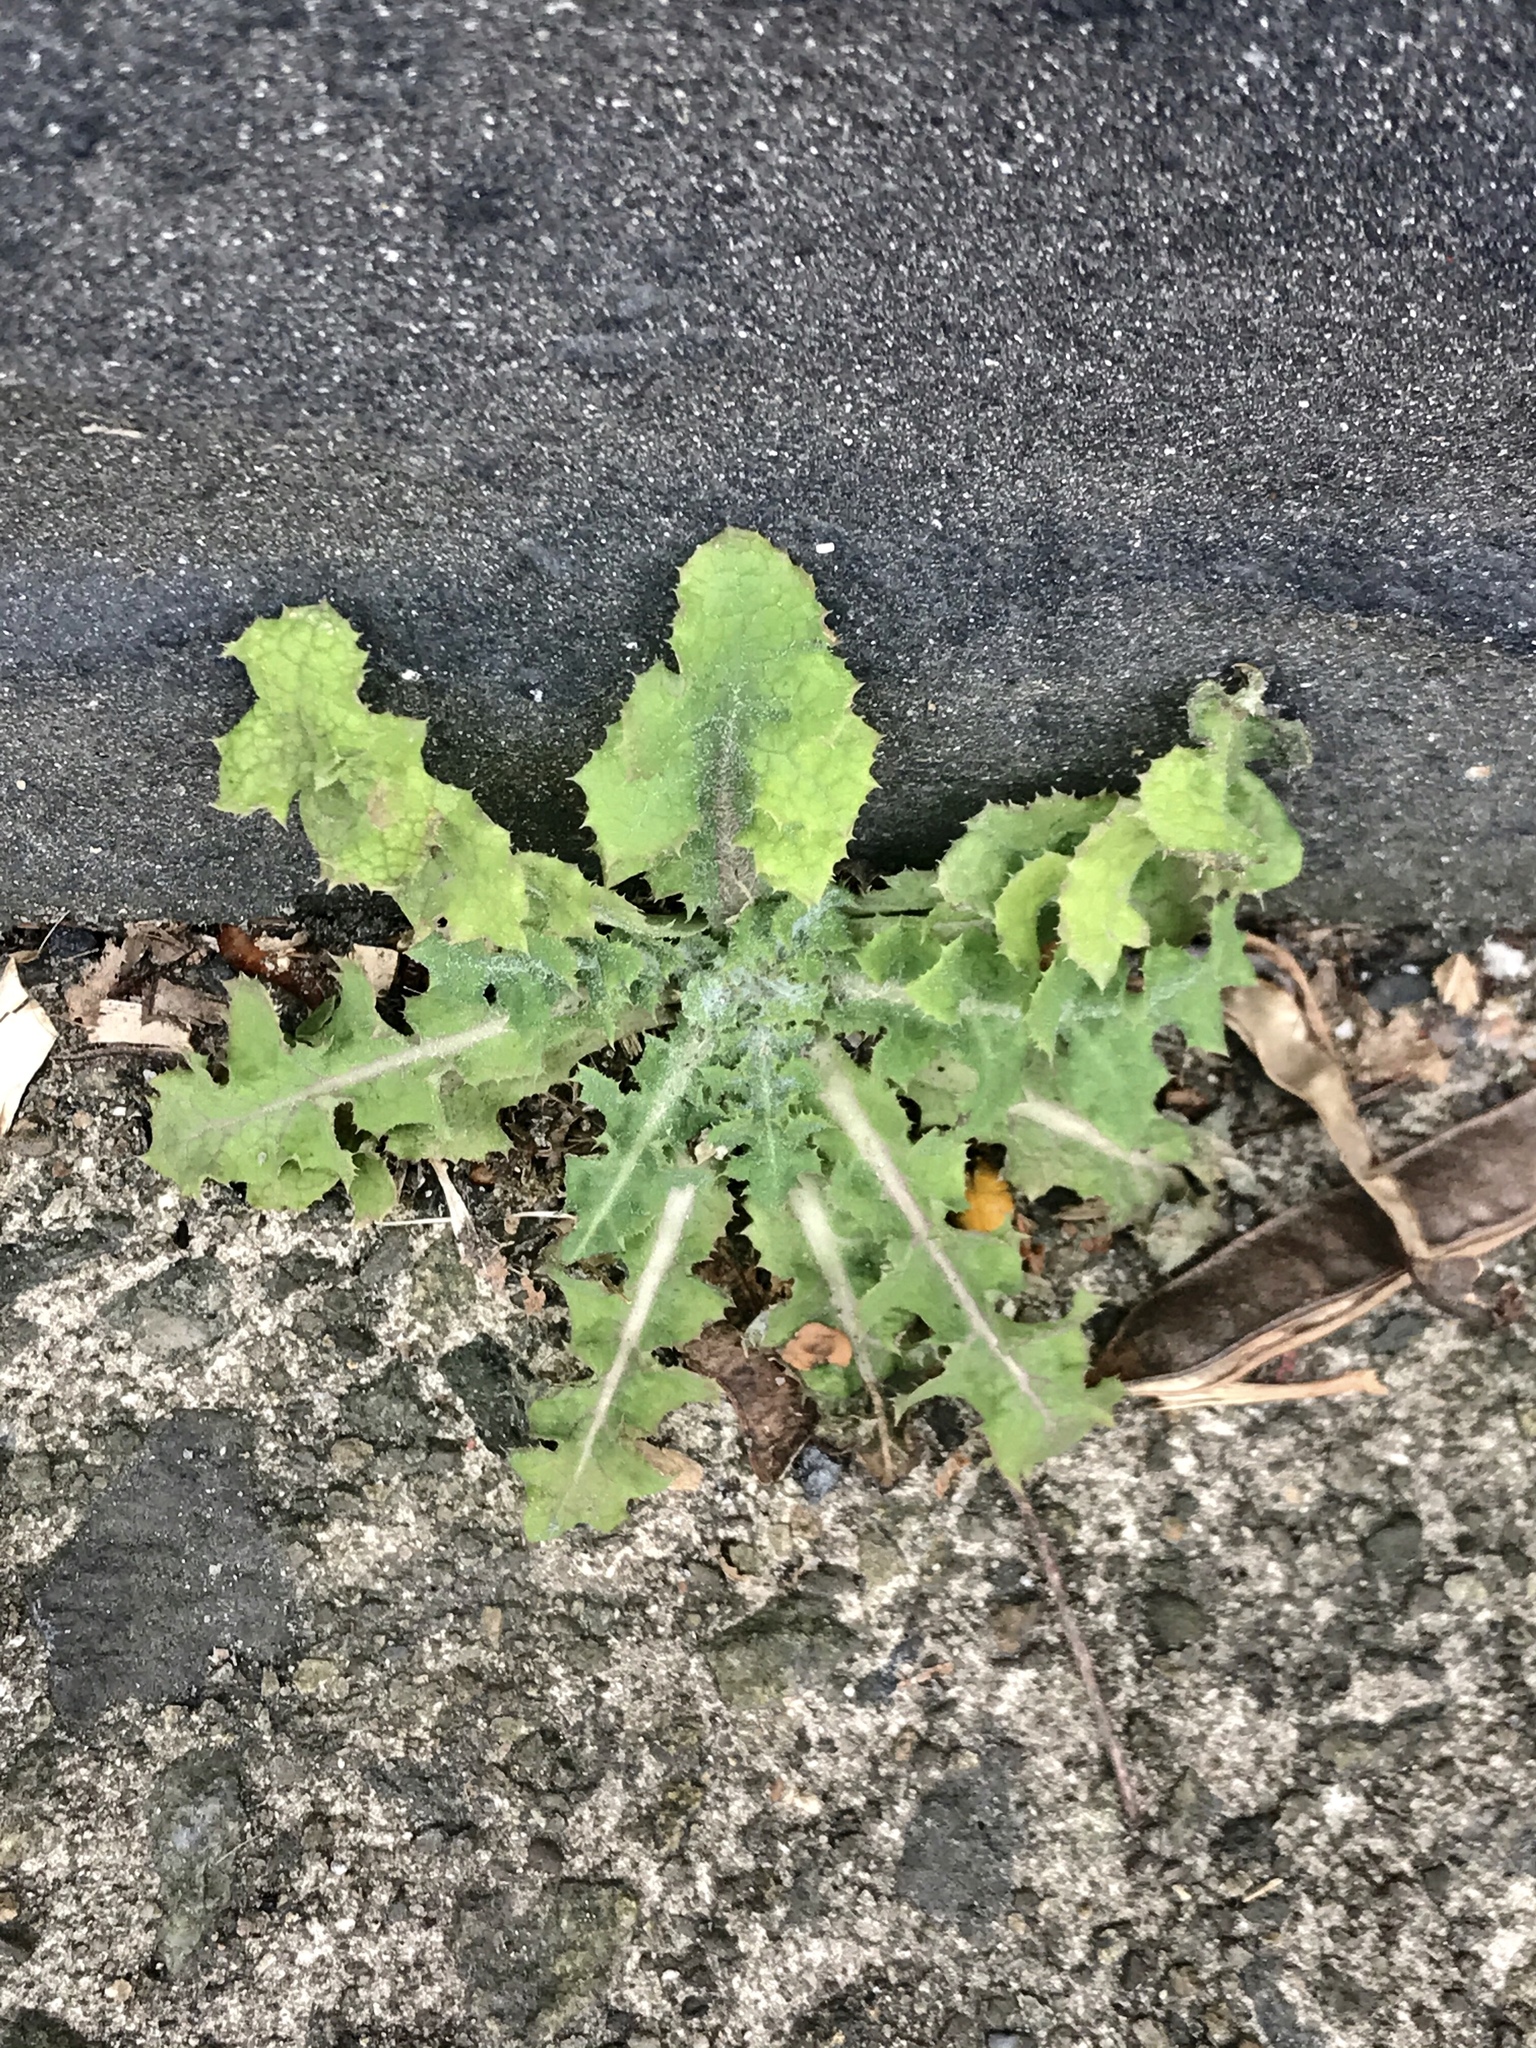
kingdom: Plantae
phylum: Tracheophyta
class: Magnoliopsida
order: Asterales
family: Asteraceae
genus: Sonchus
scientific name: Sonchus oleraceus
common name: Common sowthistle
